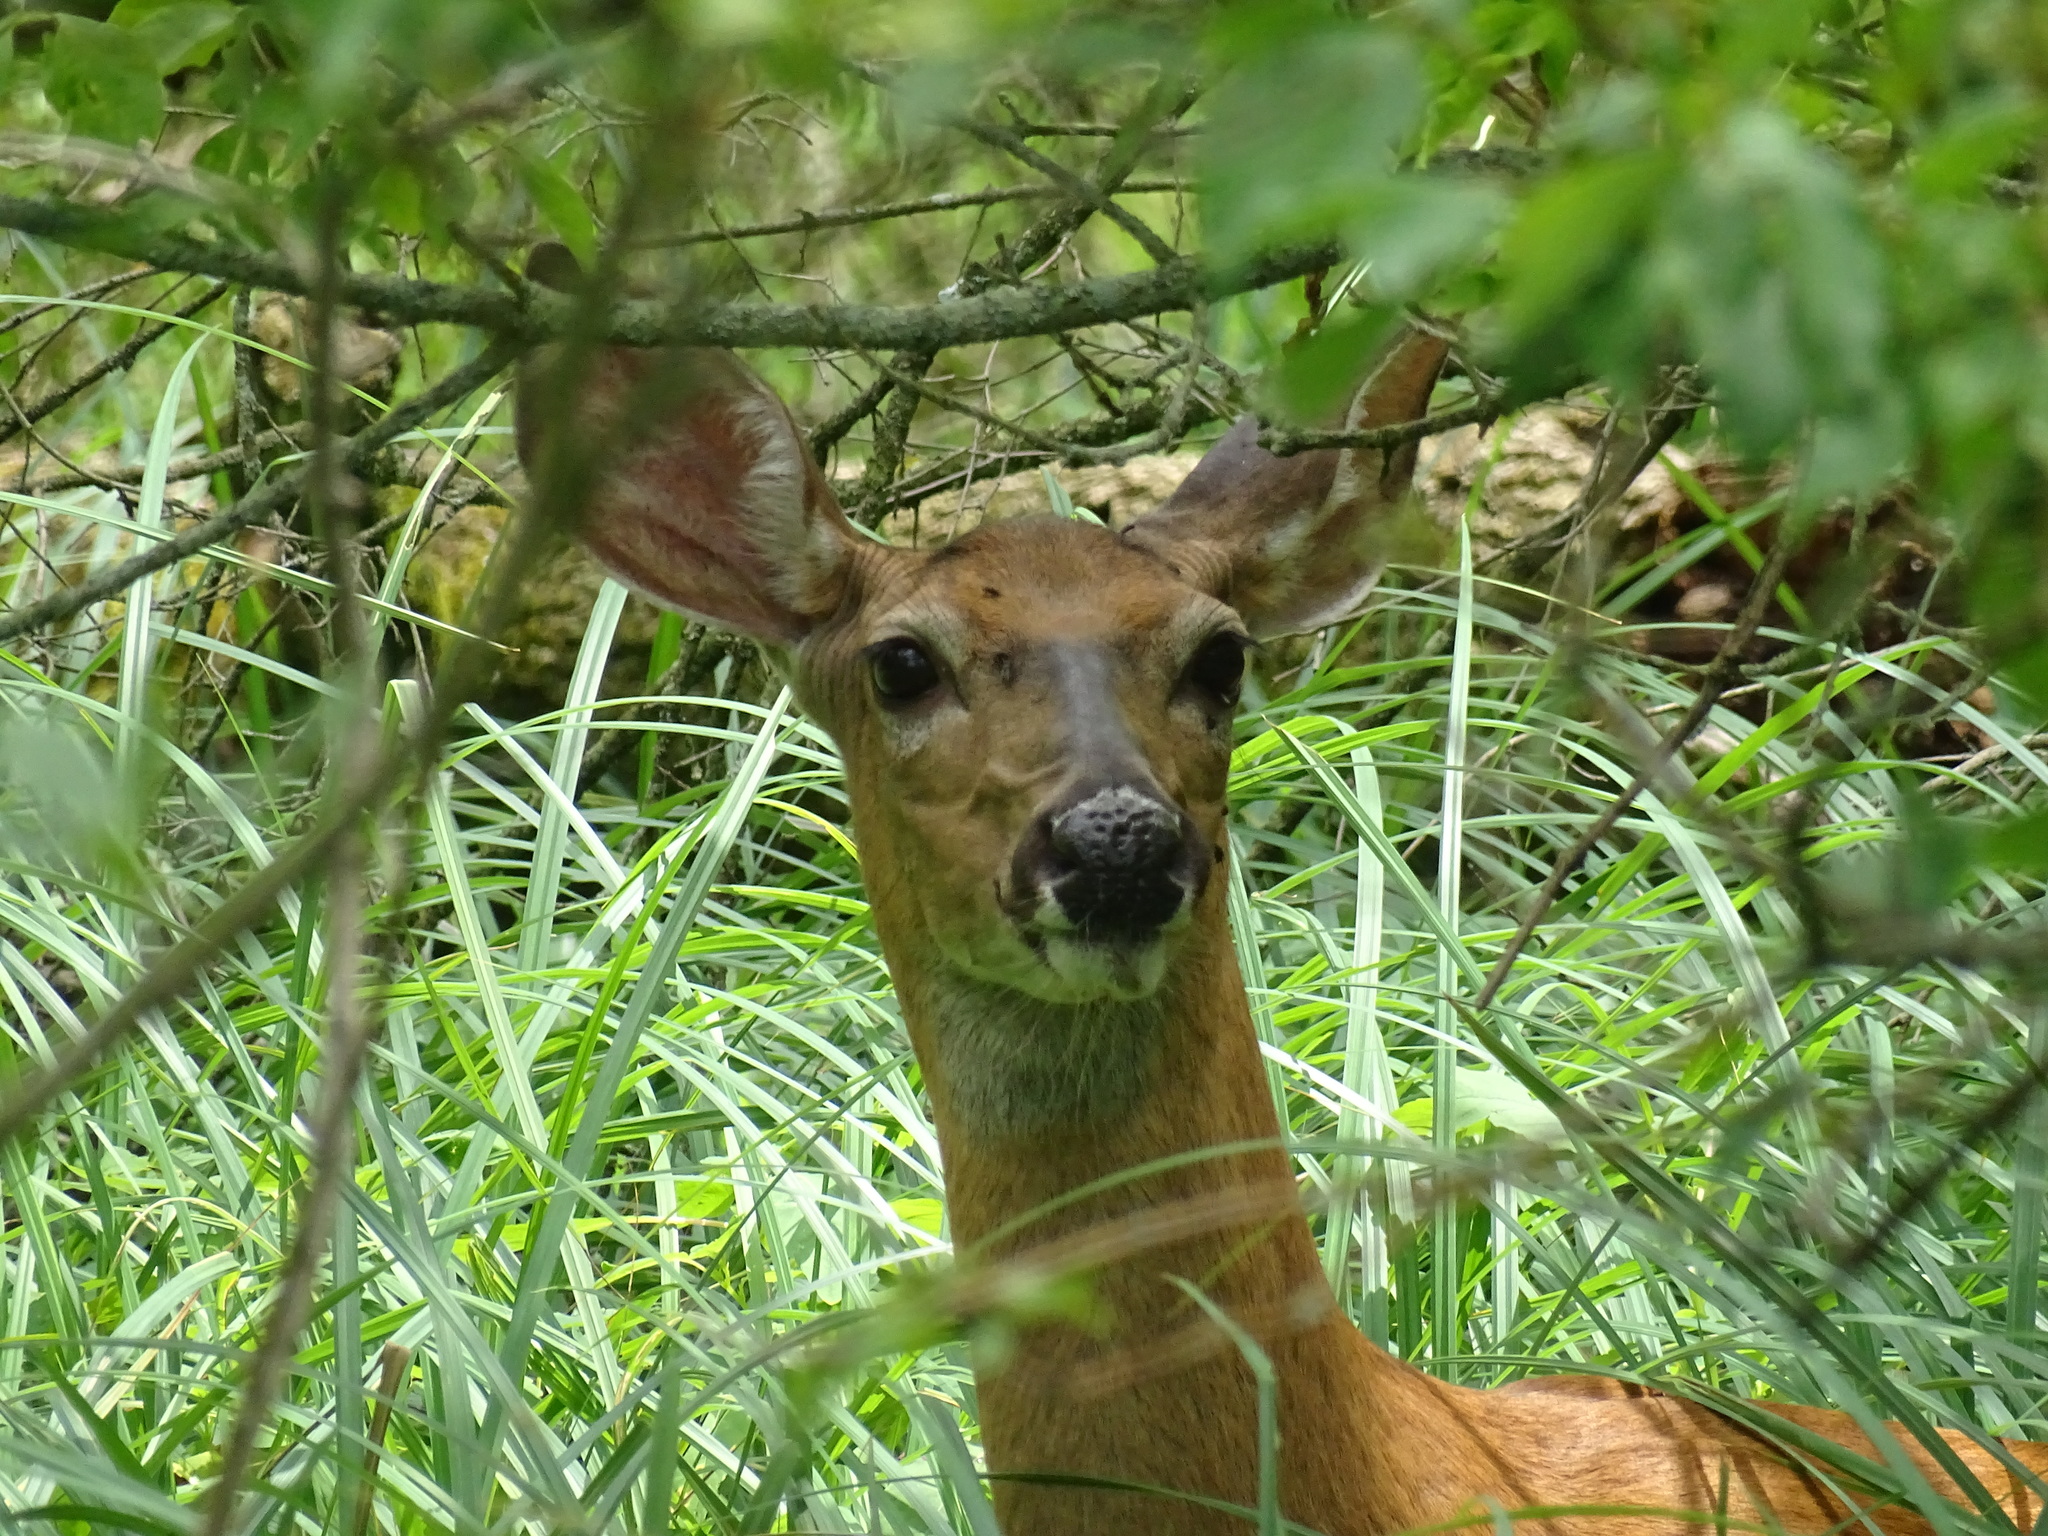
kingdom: Animalia
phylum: Chordata
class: Mammalia
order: Artiodactyla
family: Cervidae
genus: Odocoileus
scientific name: Odocoileus virginianus
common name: White-tailed deer
